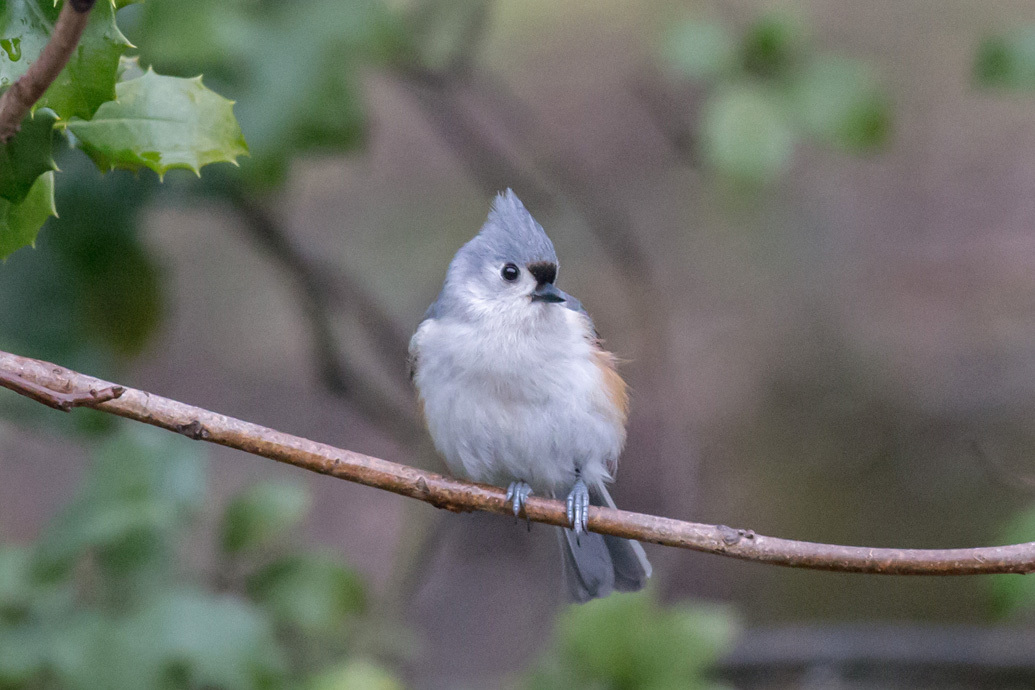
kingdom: Animalia
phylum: Chordata
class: Aves
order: Passeriformes
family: Paridae
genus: Baeolophus
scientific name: Baeolophus bicolor
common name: Tufted titmouse
